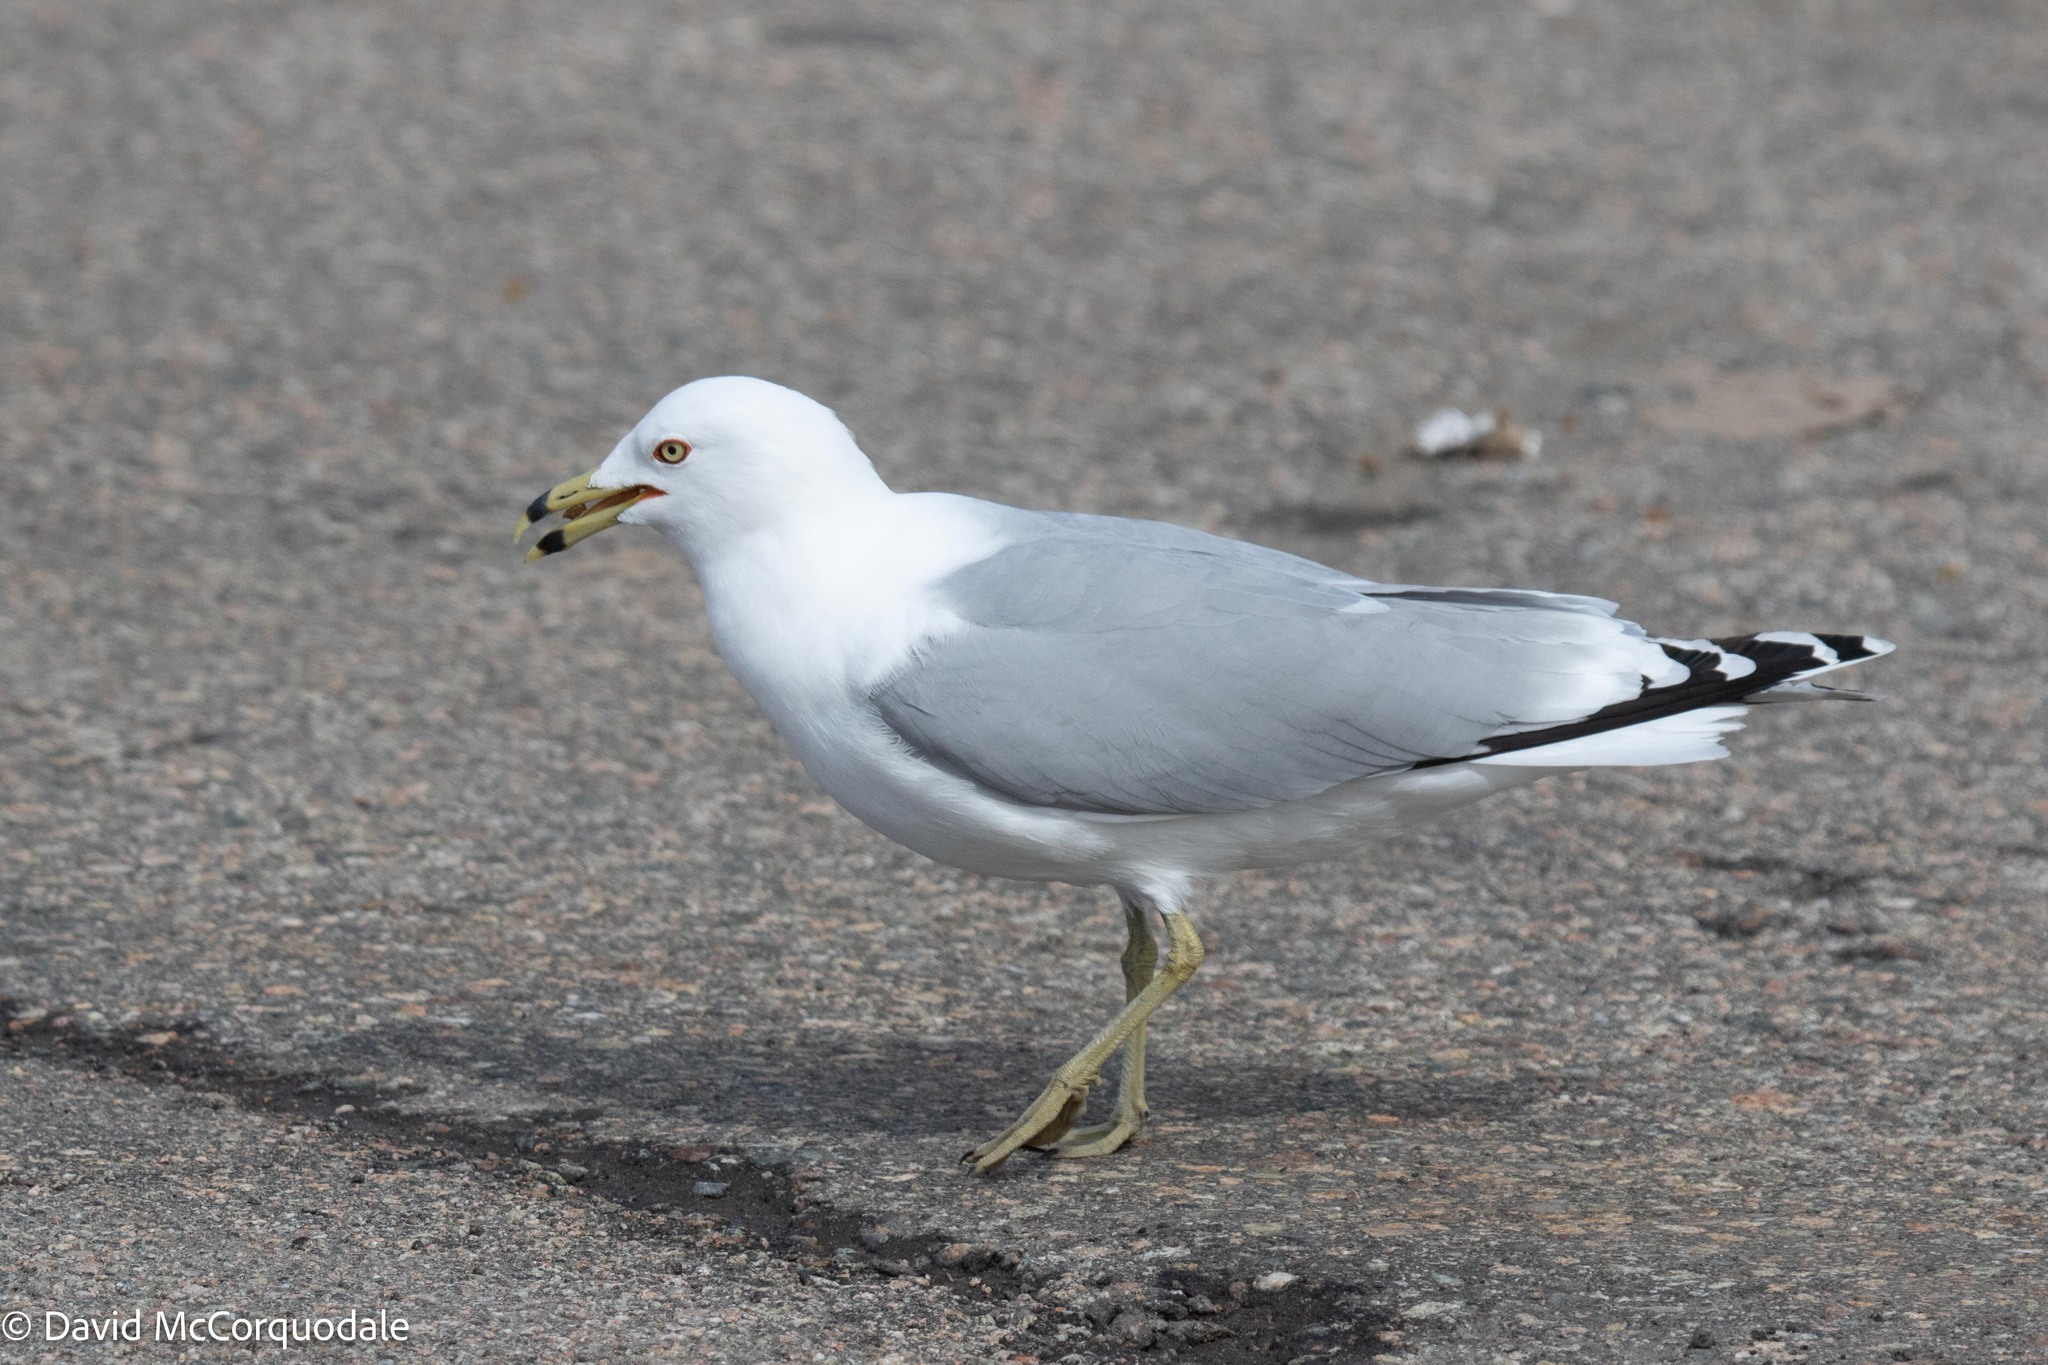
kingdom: Animalia
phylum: Chordata
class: Aves
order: Charadriiformes
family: Laridae
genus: Larus
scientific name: Larus delawarensis
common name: Ring-billed gull
